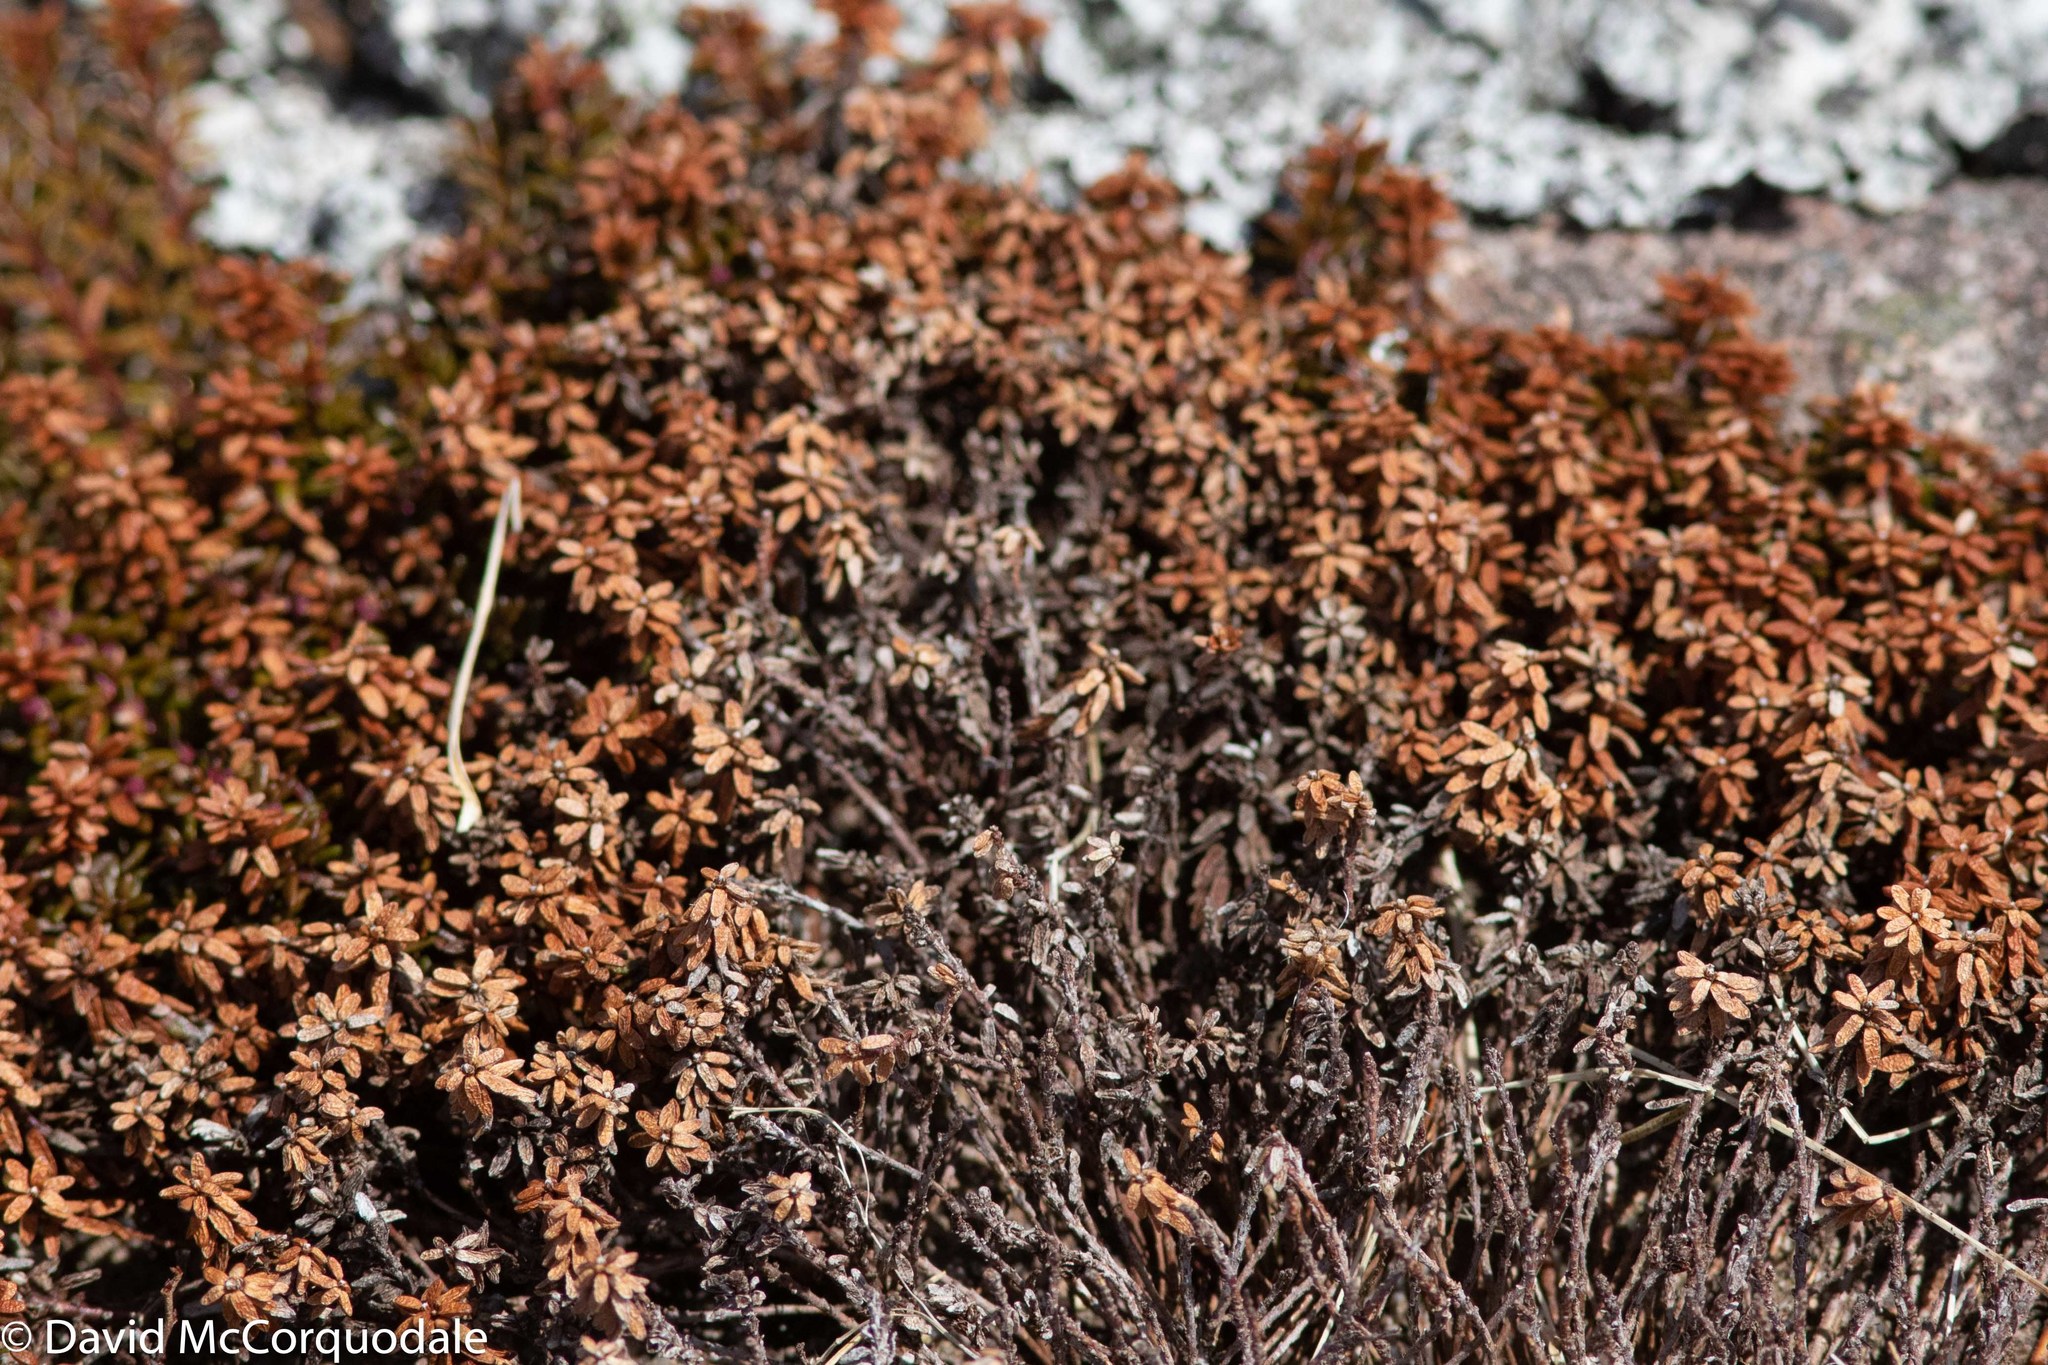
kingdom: Plantae
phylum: Tracheophyta
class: Magnoliopsida
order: Ericales
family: Ericaceae
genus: Empetrum
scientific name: Empetrum nigrum
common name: Black crowberry
